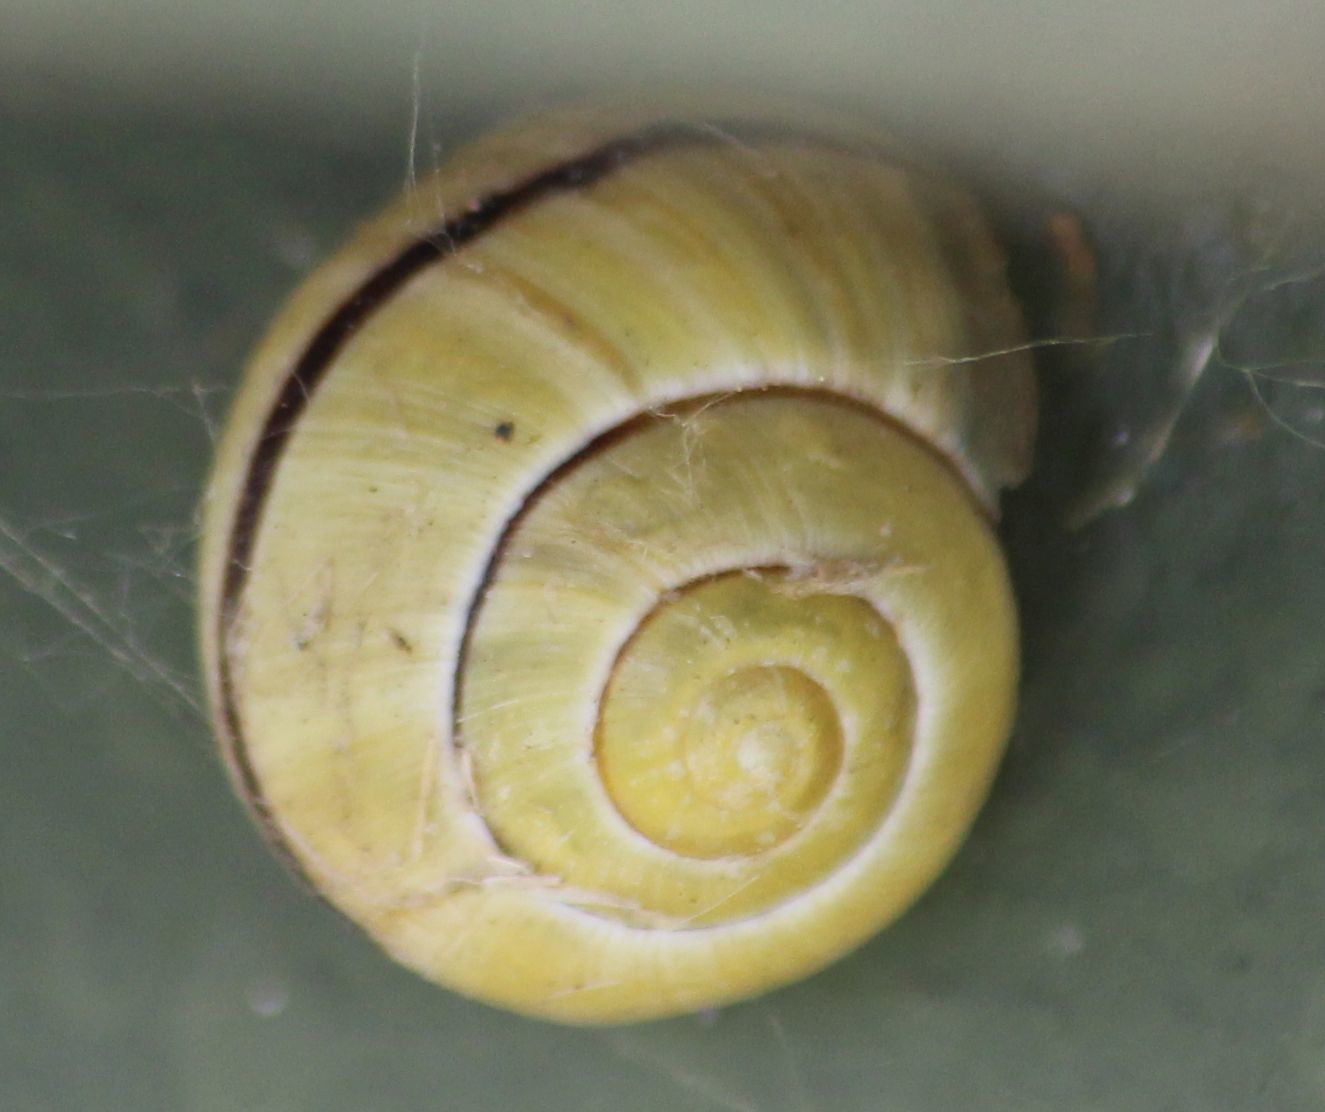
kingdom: Animalia
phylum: Mollusca
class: Gastropoda
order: Stylommatophora
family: Helicidae
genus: Cepaea
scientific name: Cepaea
